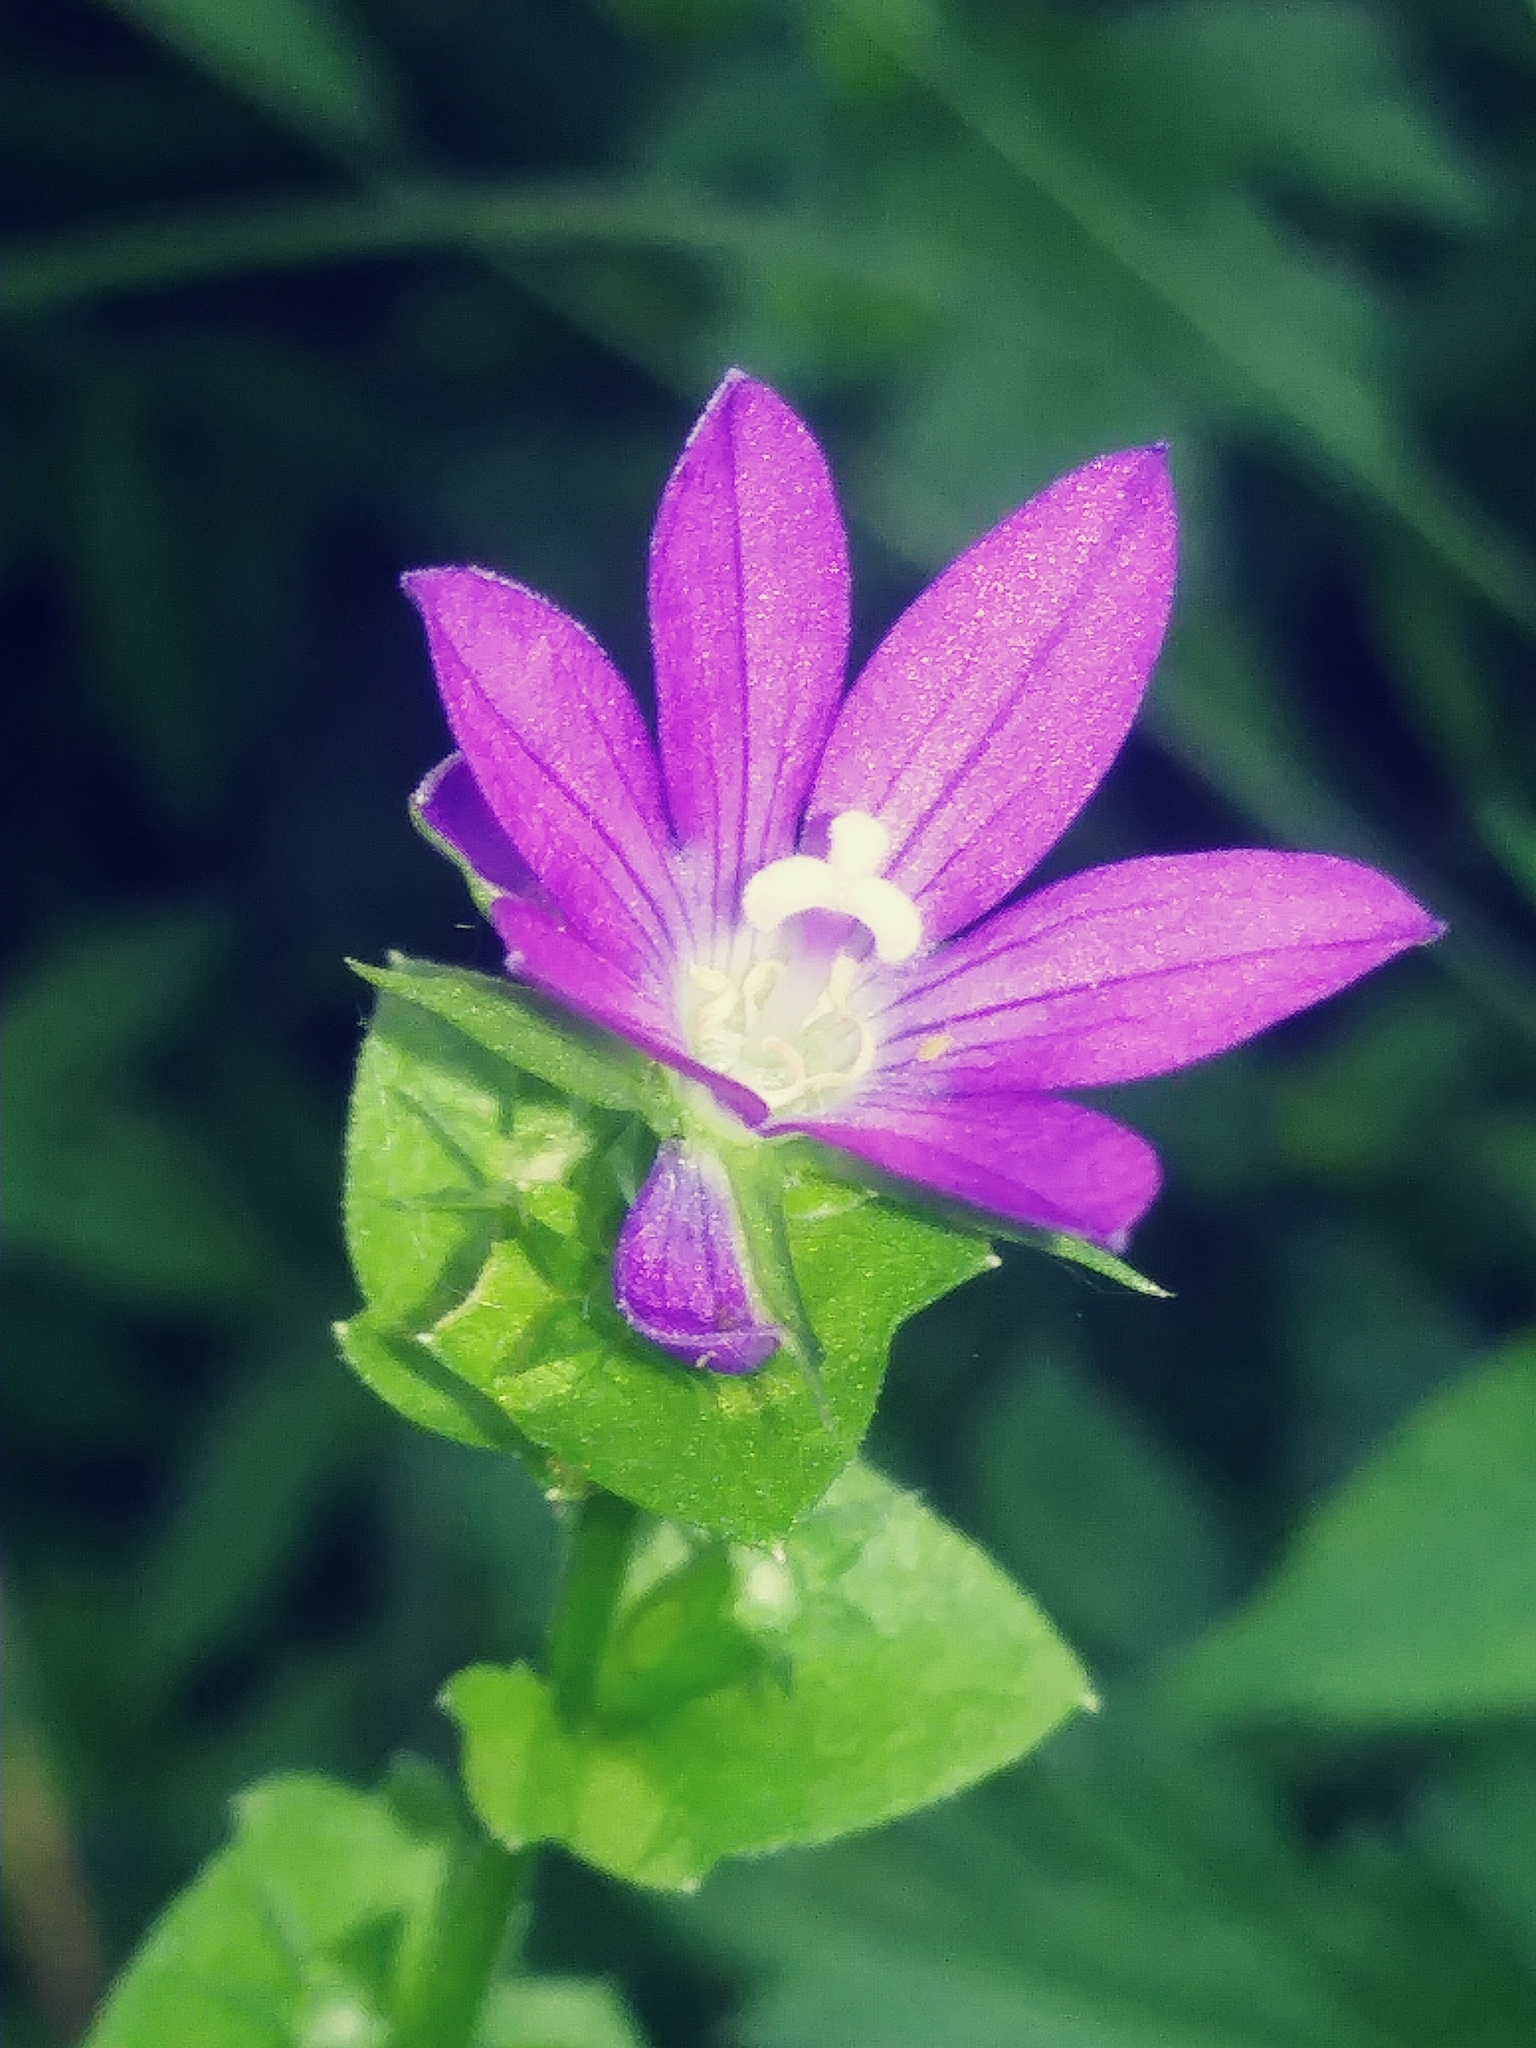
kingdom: Plantae
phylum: Tracheophyta
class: Magnoliopsida
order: Asterales
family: Campanulaceae
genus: Triodanis
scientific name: Triodanis perfoliata
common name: Clasping venus' looking-glass
